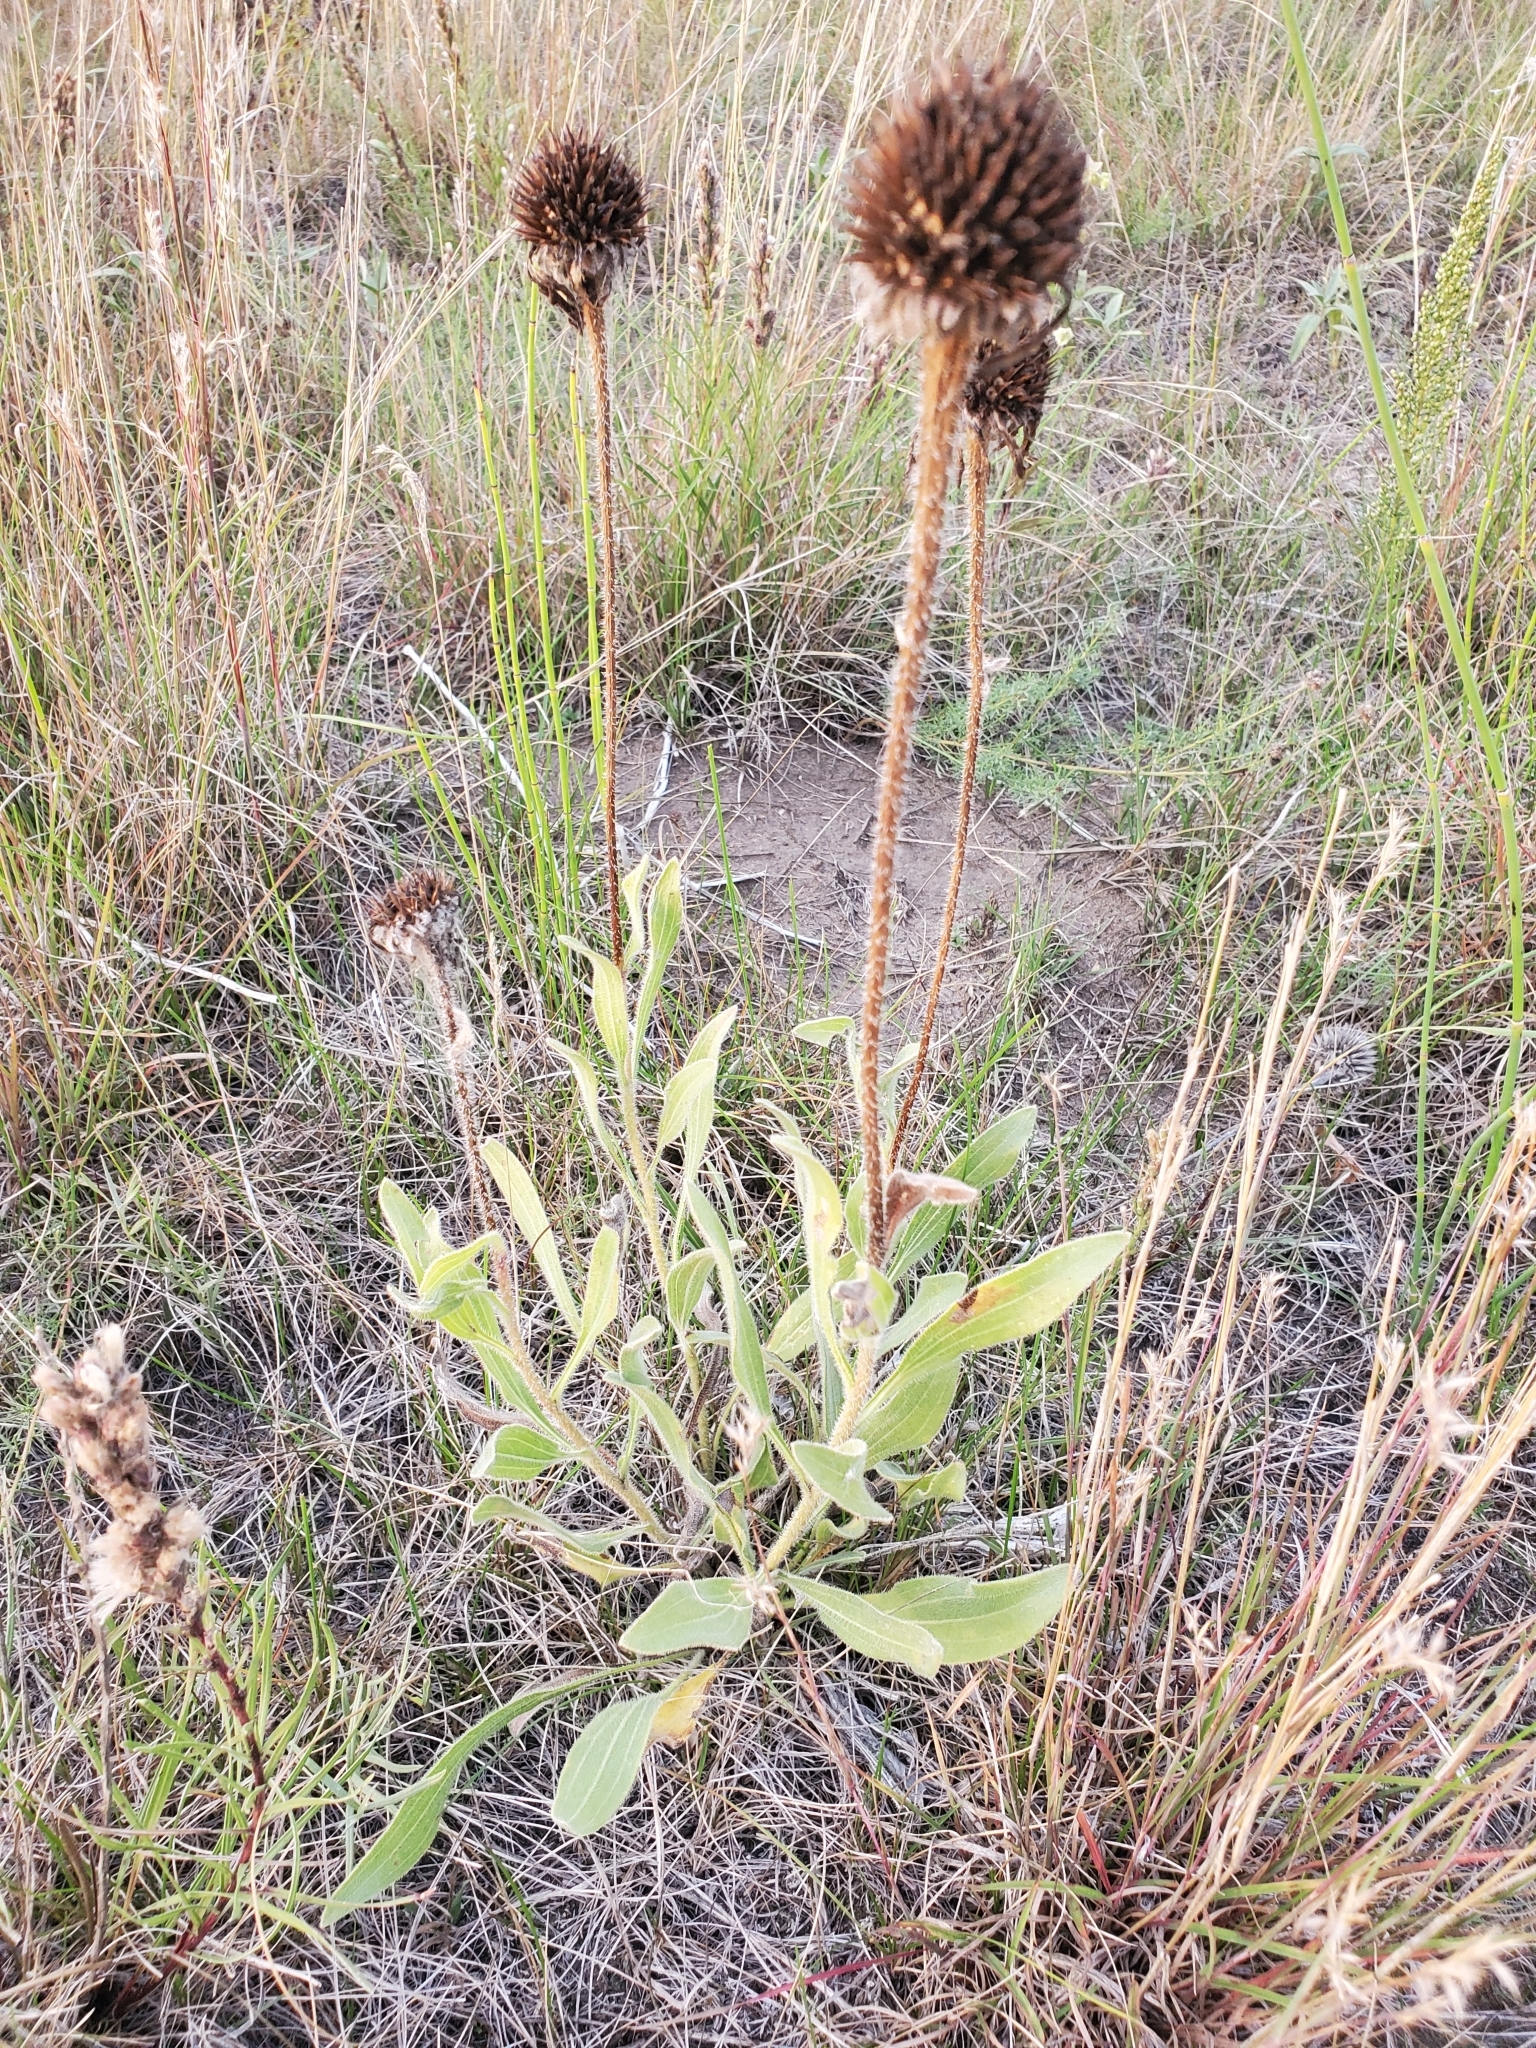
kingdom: Plantae
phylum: Tracheophyta
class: Magnoliopsida
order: Asterales
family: Asteraceae
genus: Echinacea
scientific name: Echinacea angustifolia
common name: Black-sampson echinacea
